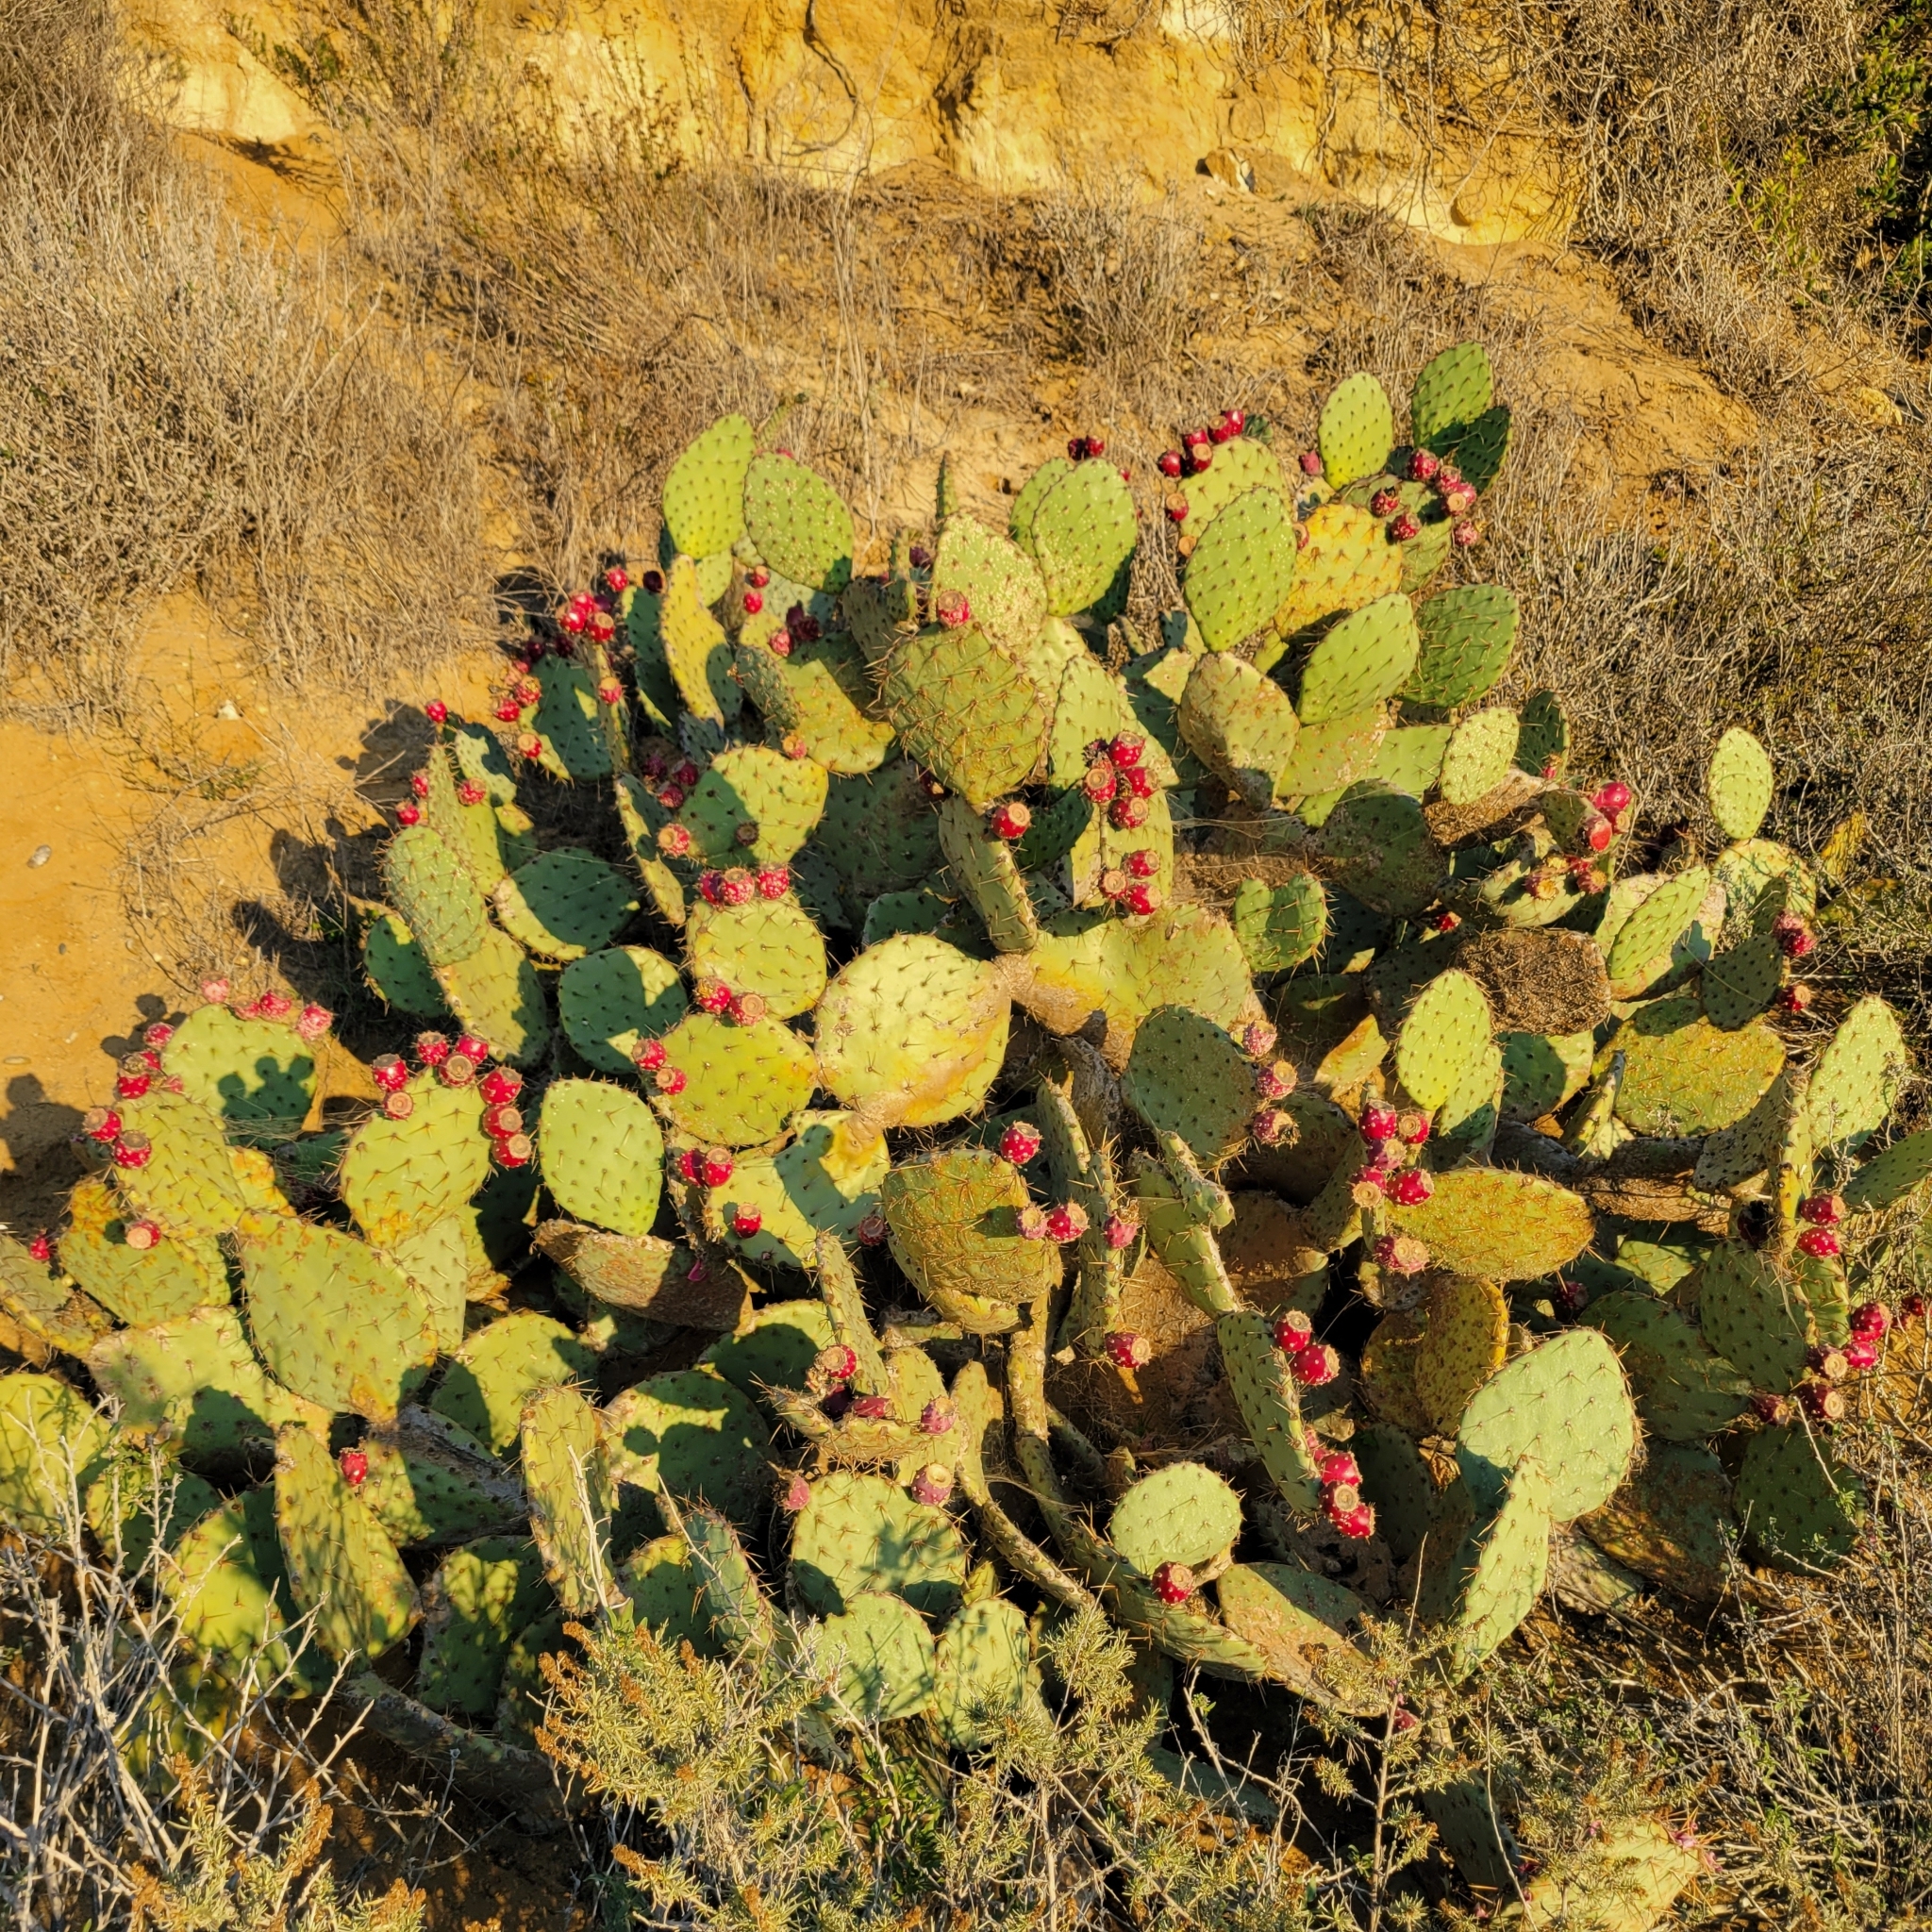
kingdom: Plantae
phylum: Tracheophyta
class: Magnoliopsida
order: Caryophyllales
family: Cactaceae
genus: Opuntia
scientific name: Opuntia littoralis
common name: Coastal prickly-pear
